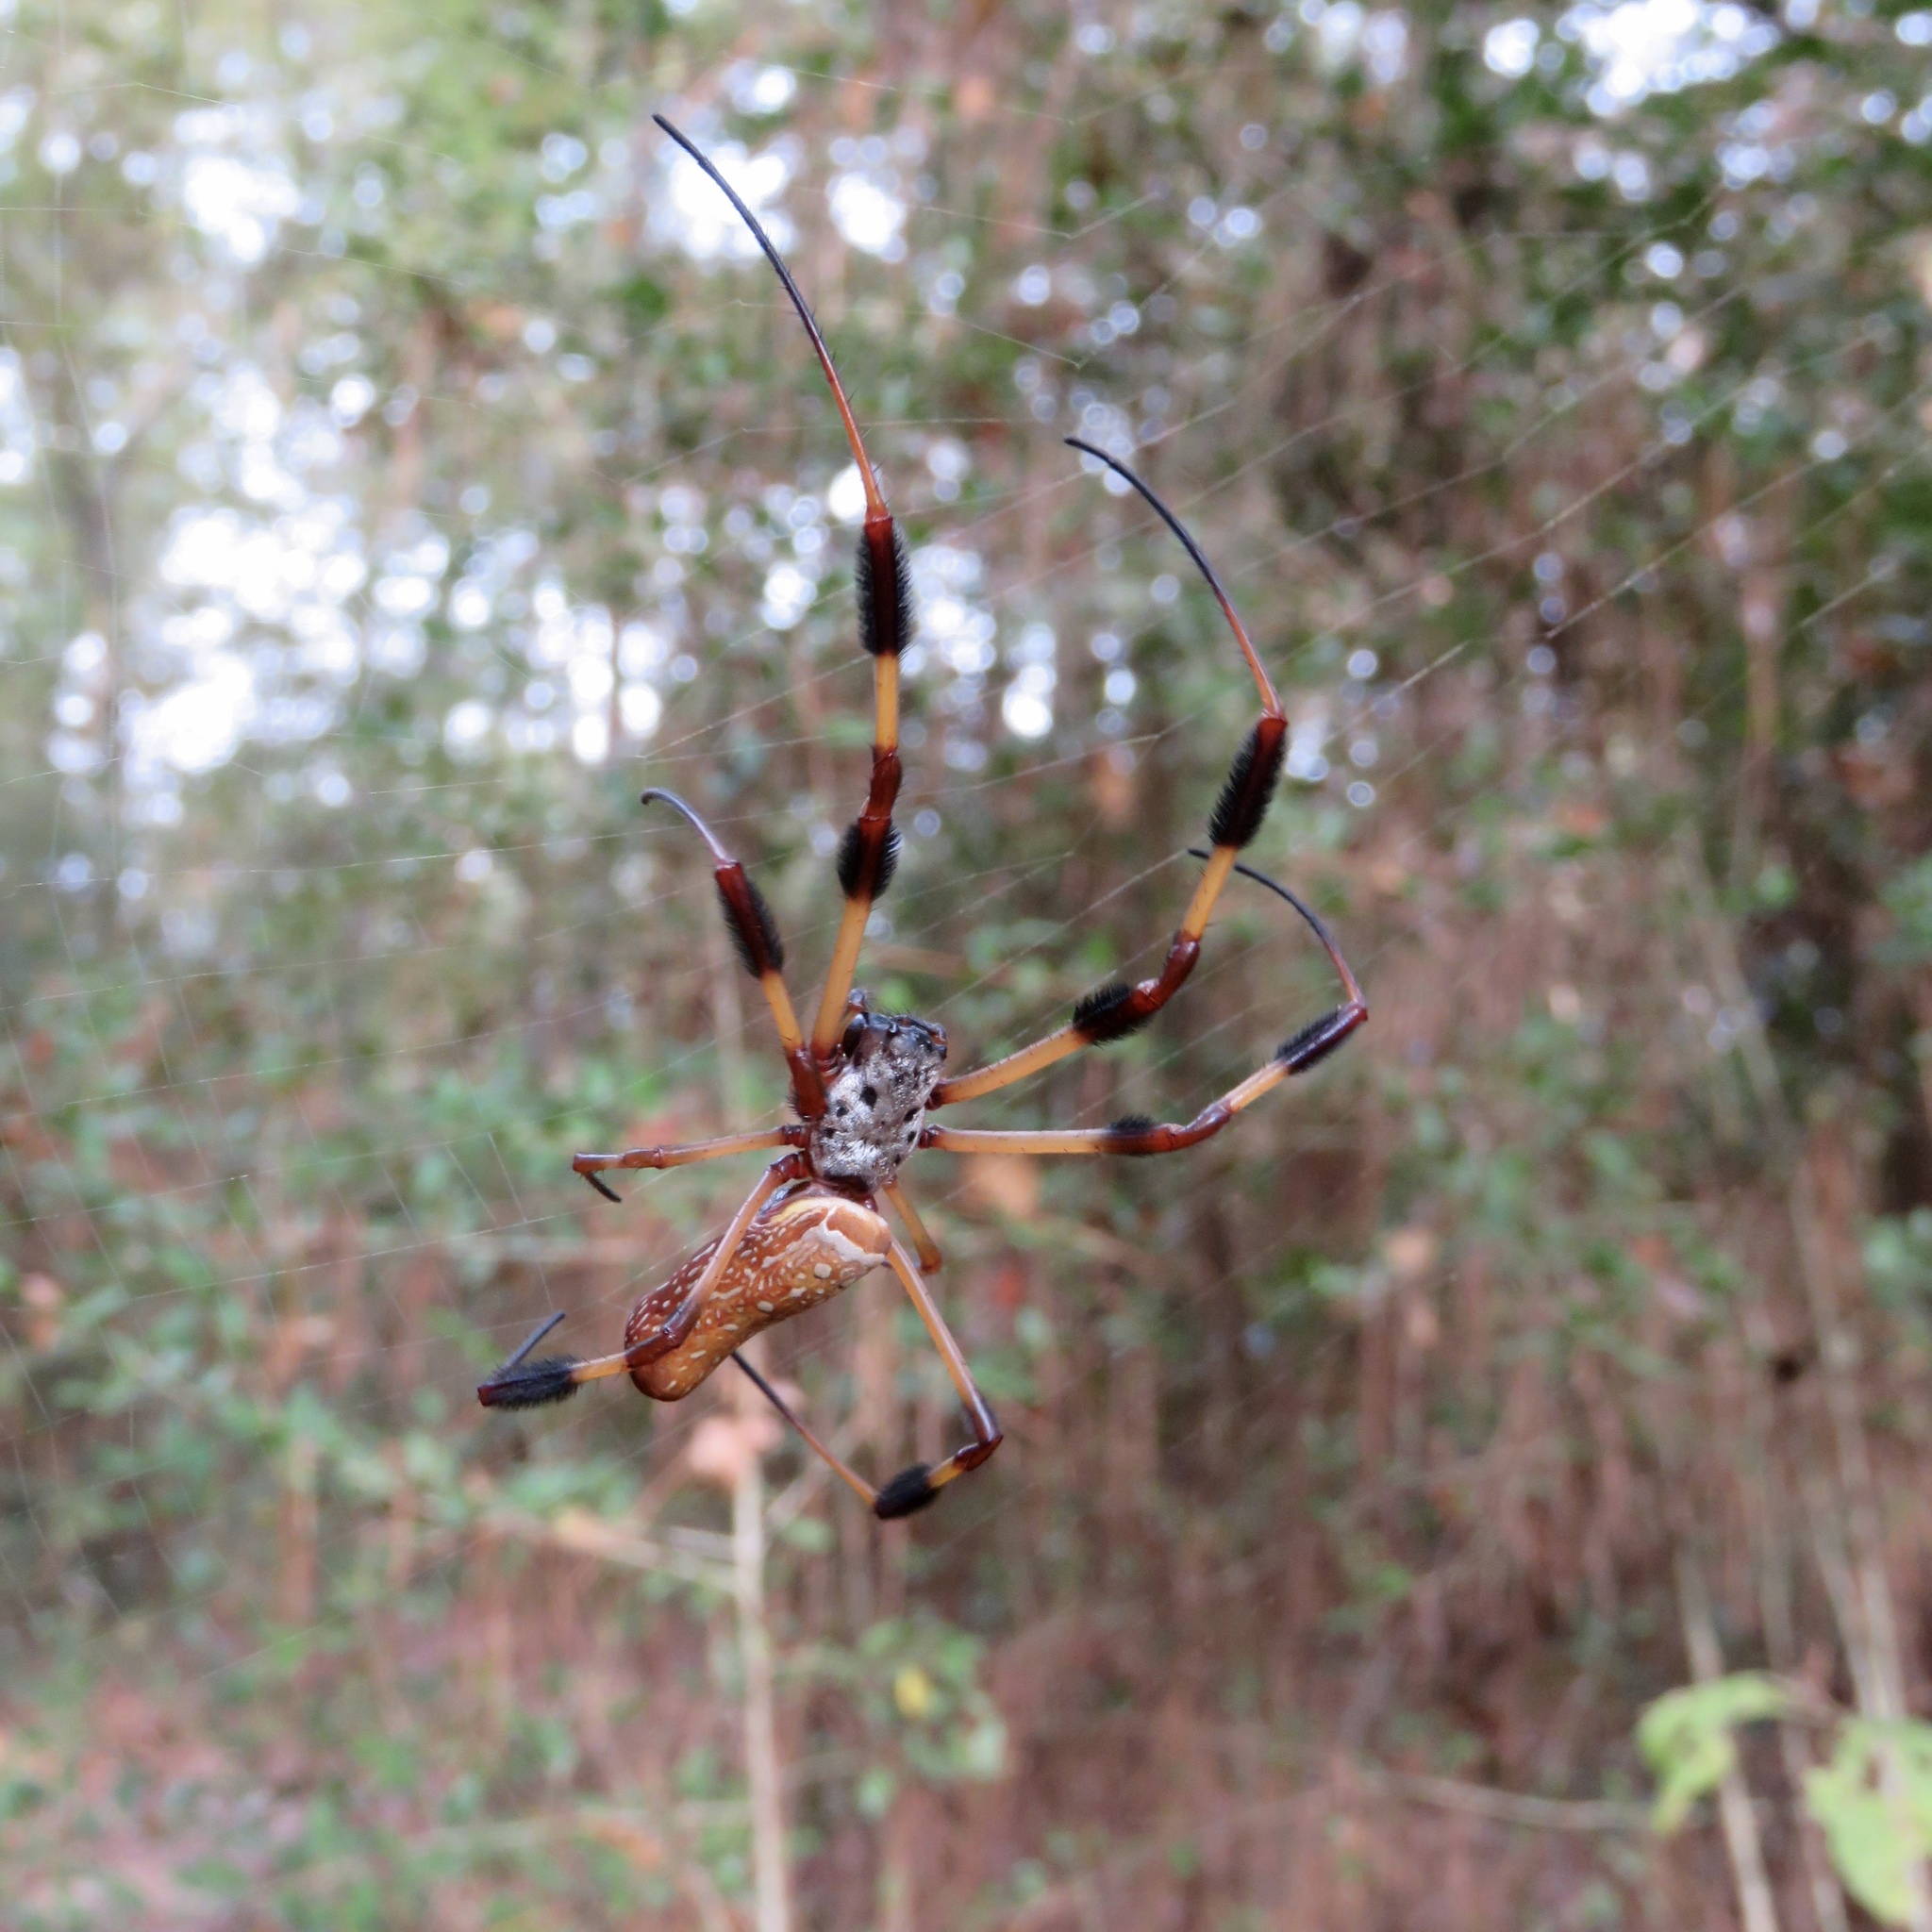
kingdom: Animalia
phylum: Arthropoda
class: Arachnida
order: Araneae
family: Araneidae
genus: Trichonephila
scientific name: Trichonephila clavipes
